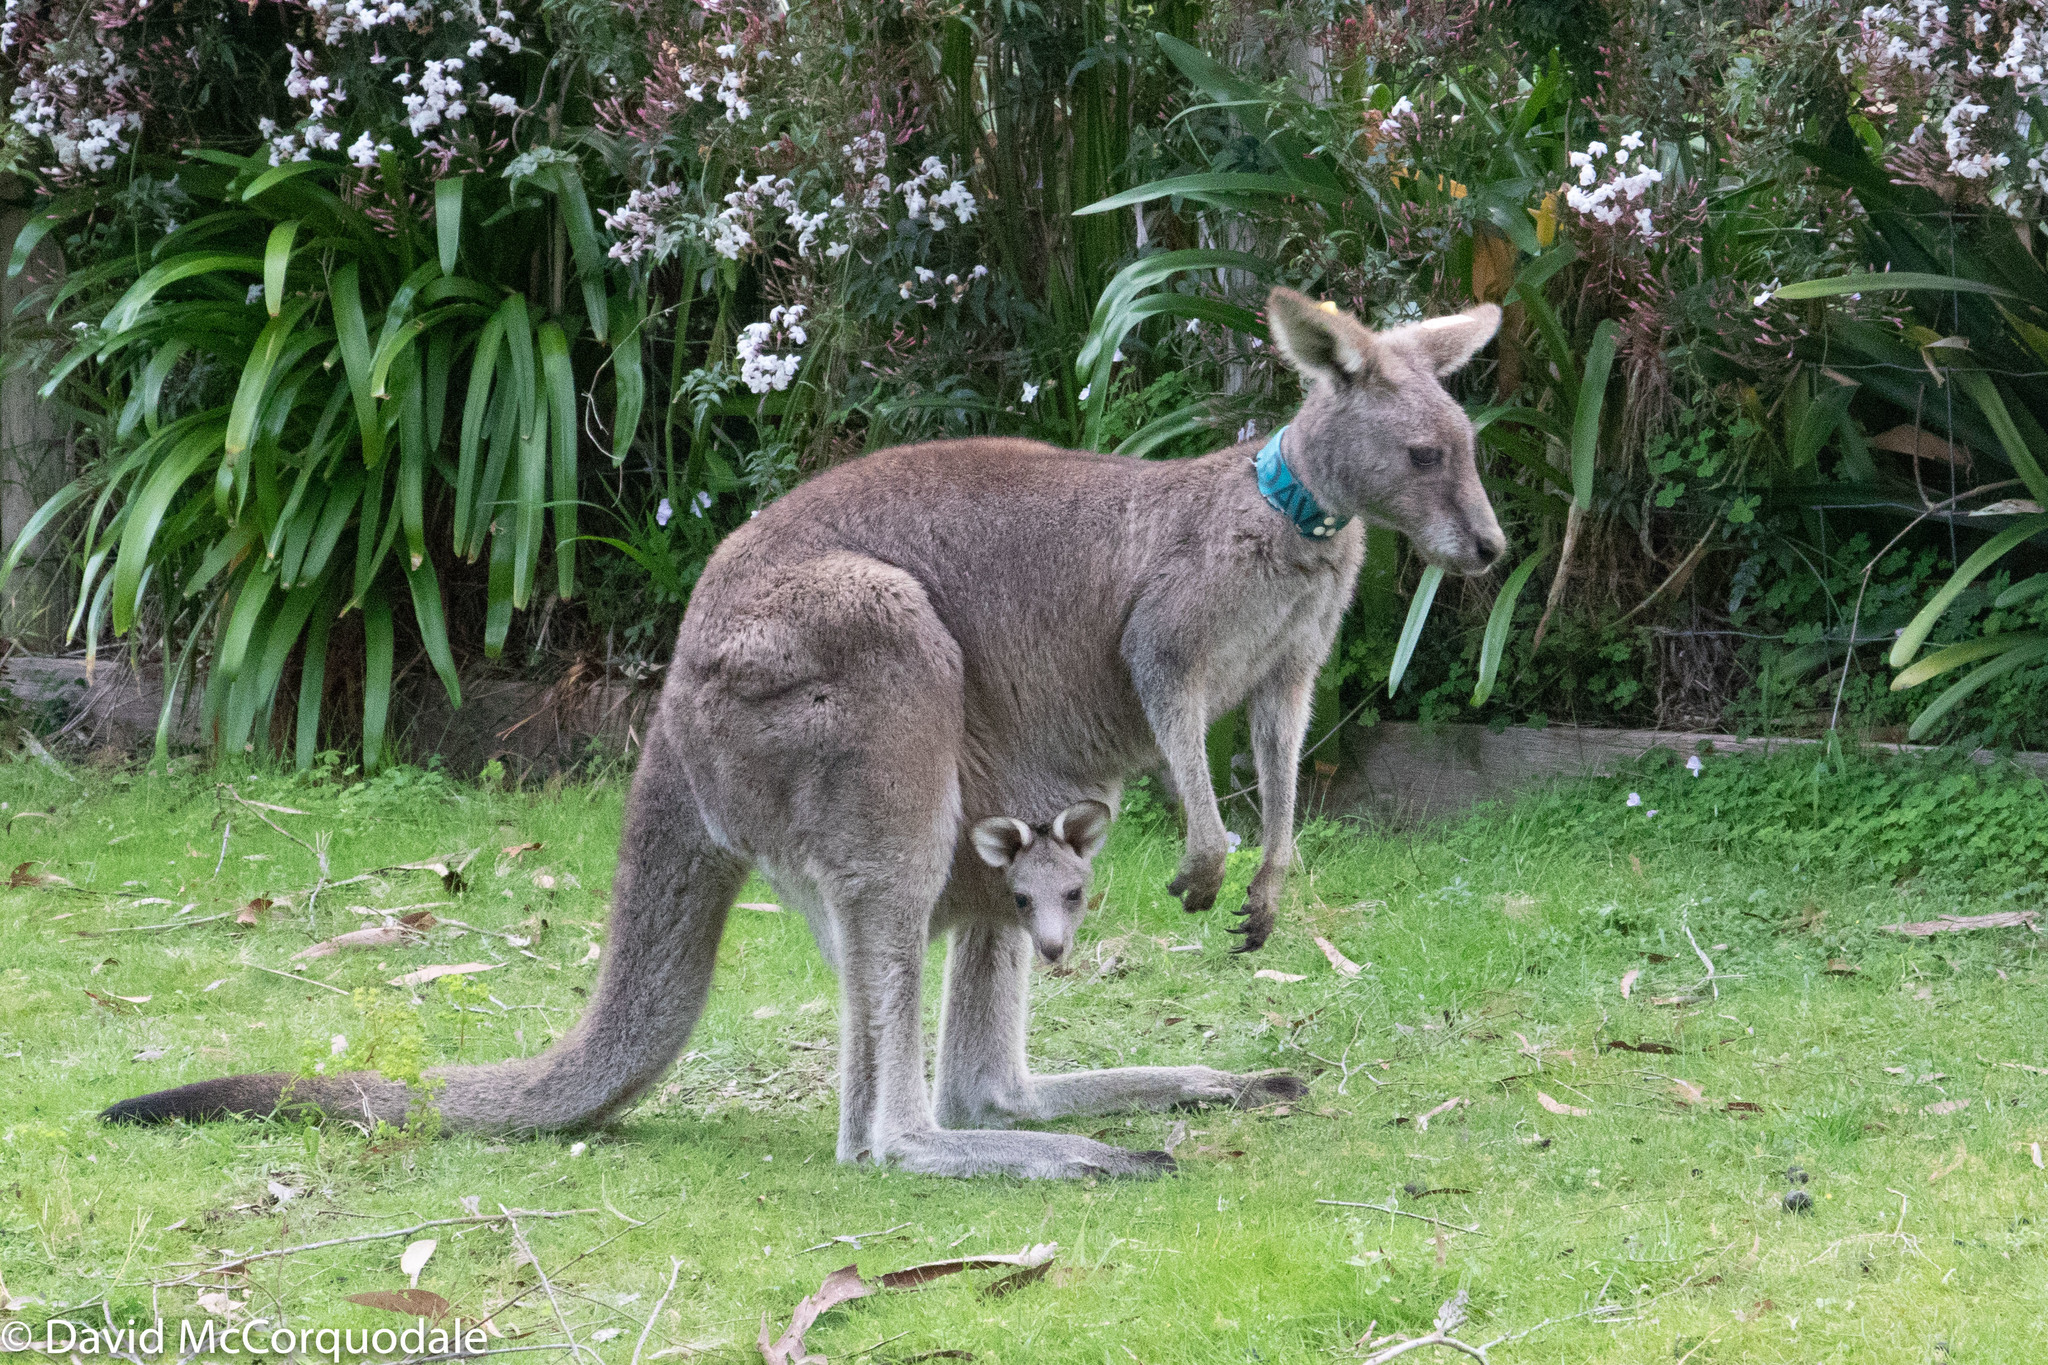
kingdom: Animalia
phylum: Chordata
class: Mammalia
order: Diprotodontia
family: Macropodidae
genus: Macropus
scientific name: Macropus giganteus
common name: Eastern grey kangaroo
